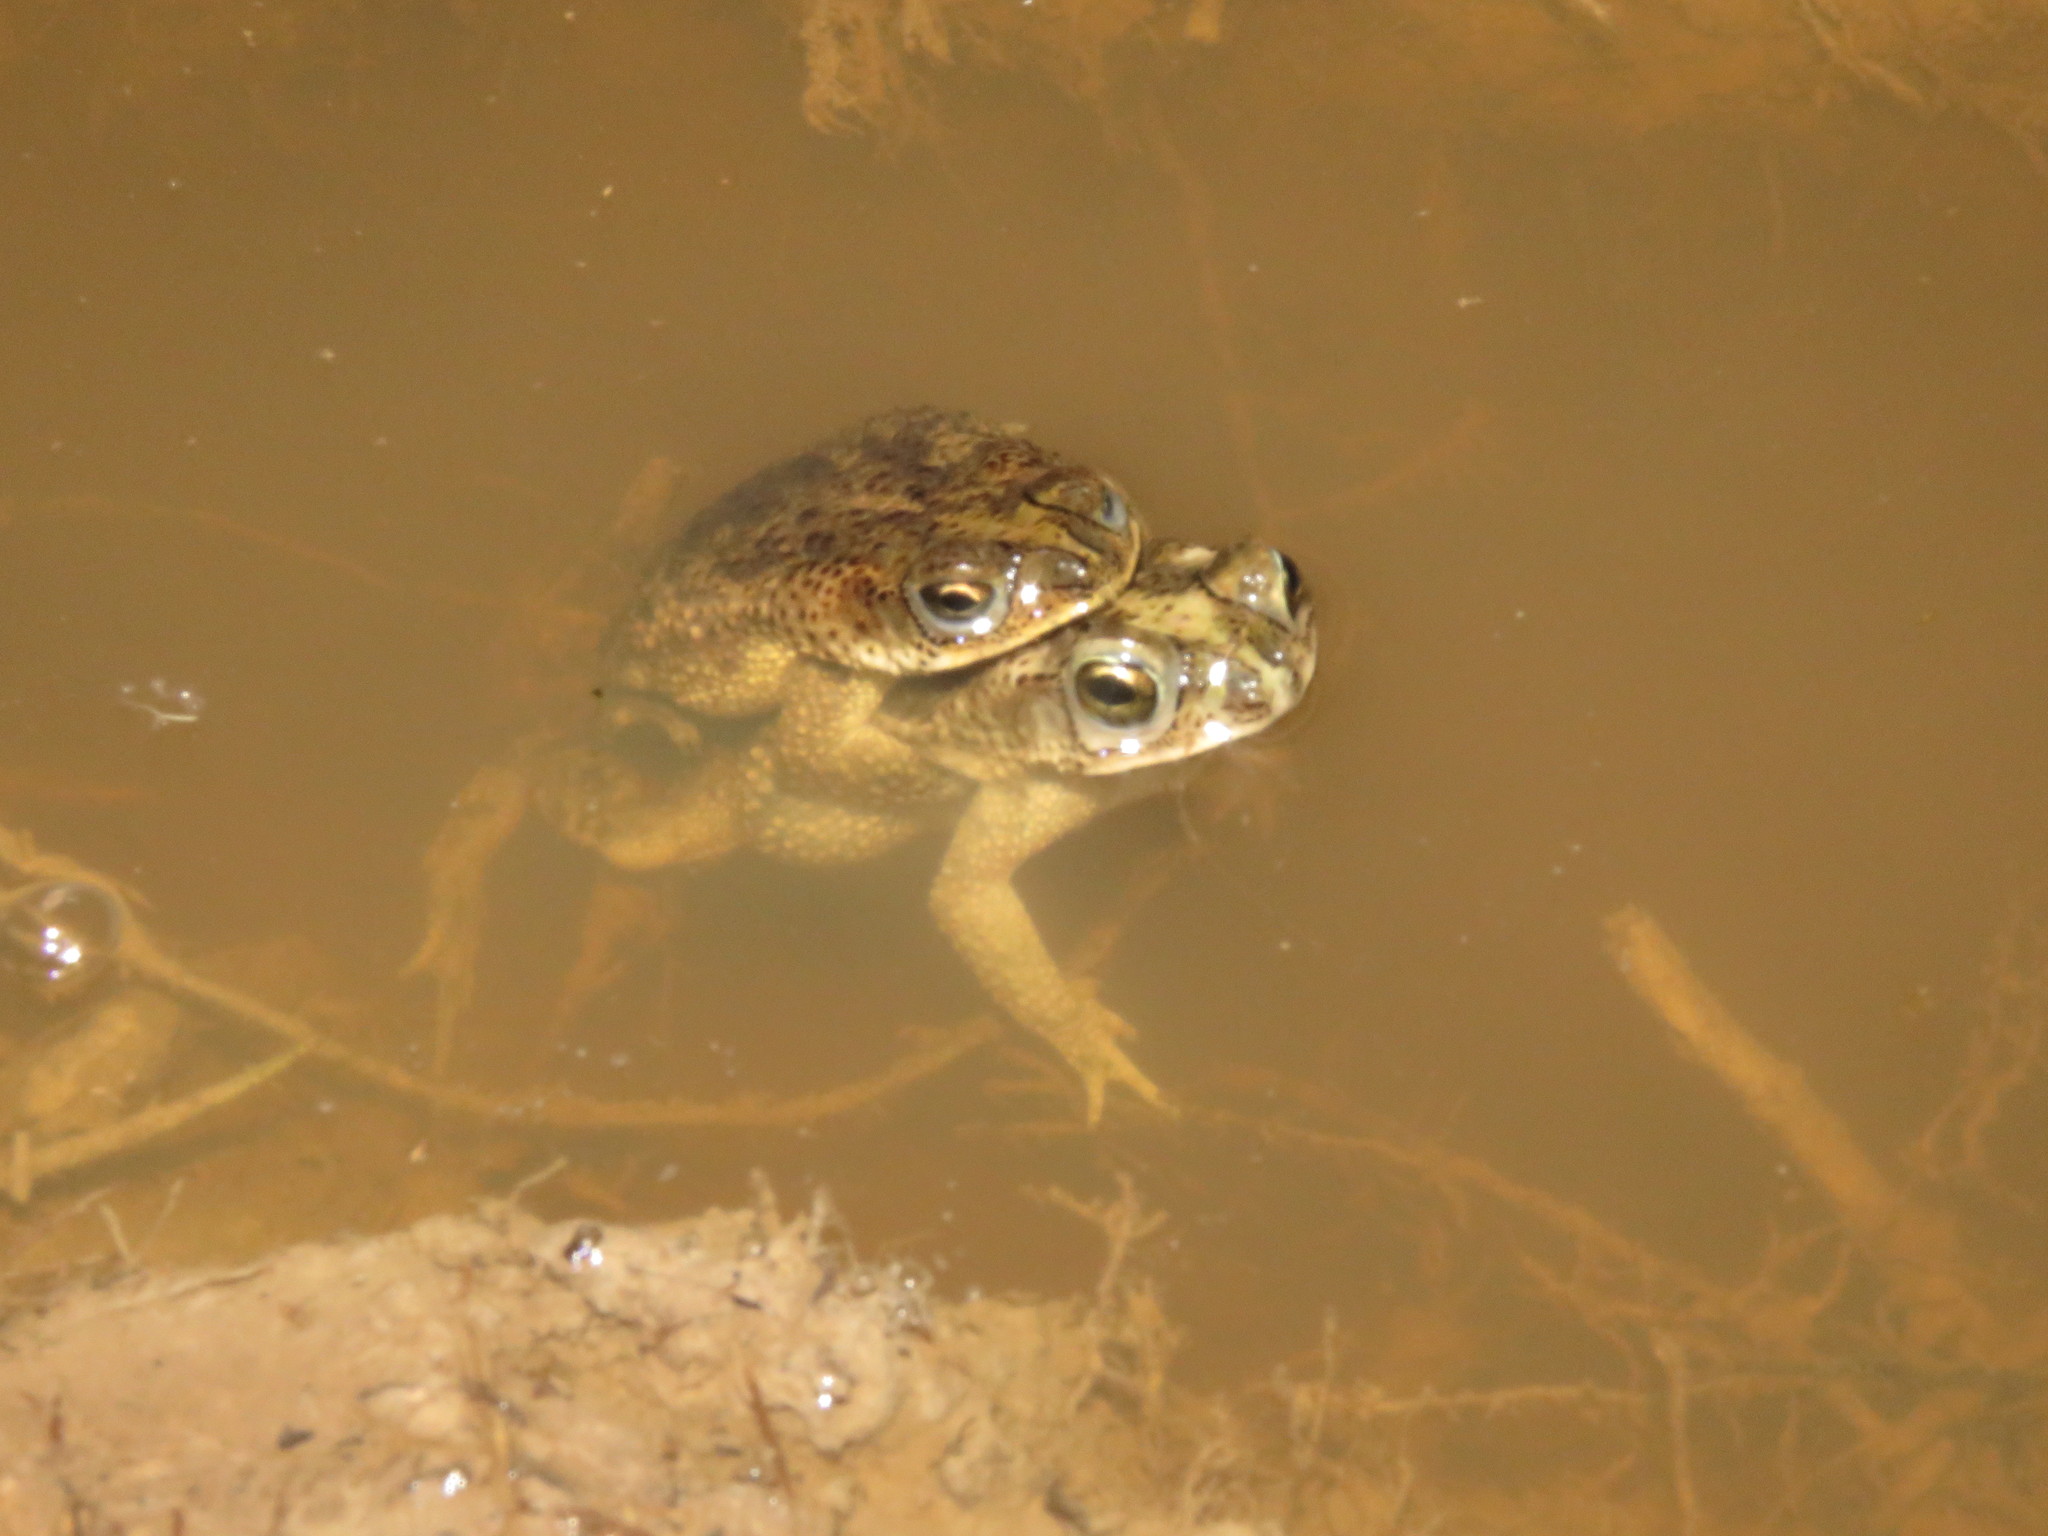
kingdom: Animalia
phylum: Chordata
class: Amphibia
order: Anura
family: Bufonidae
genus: Rhinella
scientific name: Rhinella major
